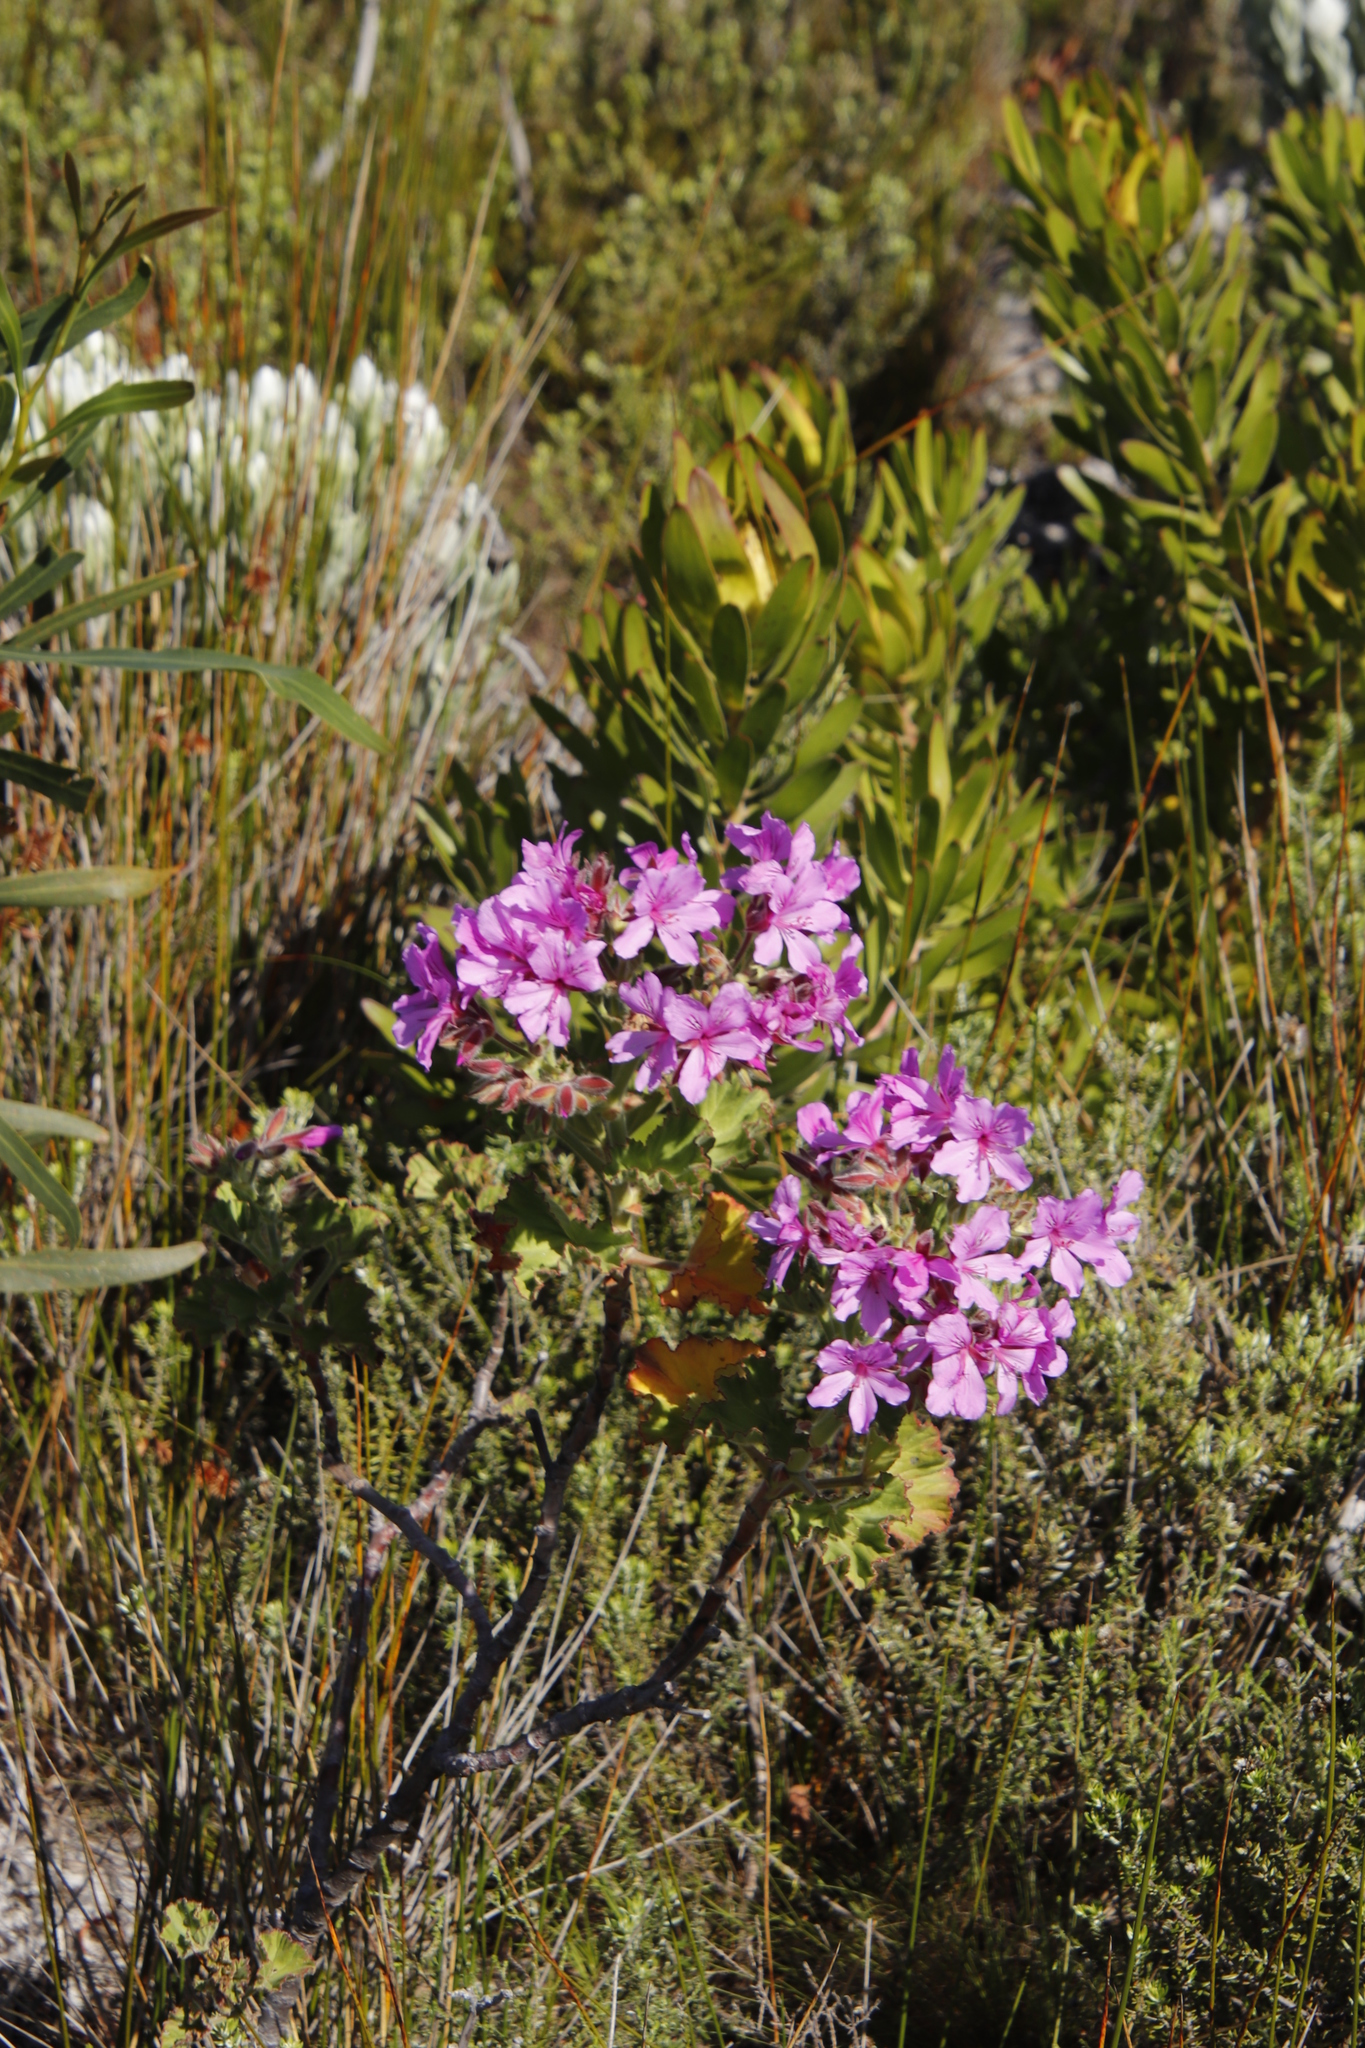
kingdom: Plantae
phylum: Tracheophyta
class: Magnoliopsida
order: Geraniales
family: Geraniaceae
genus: Pelargonium
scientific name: Pelargonium cucullatum
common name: Tree pelargonium
